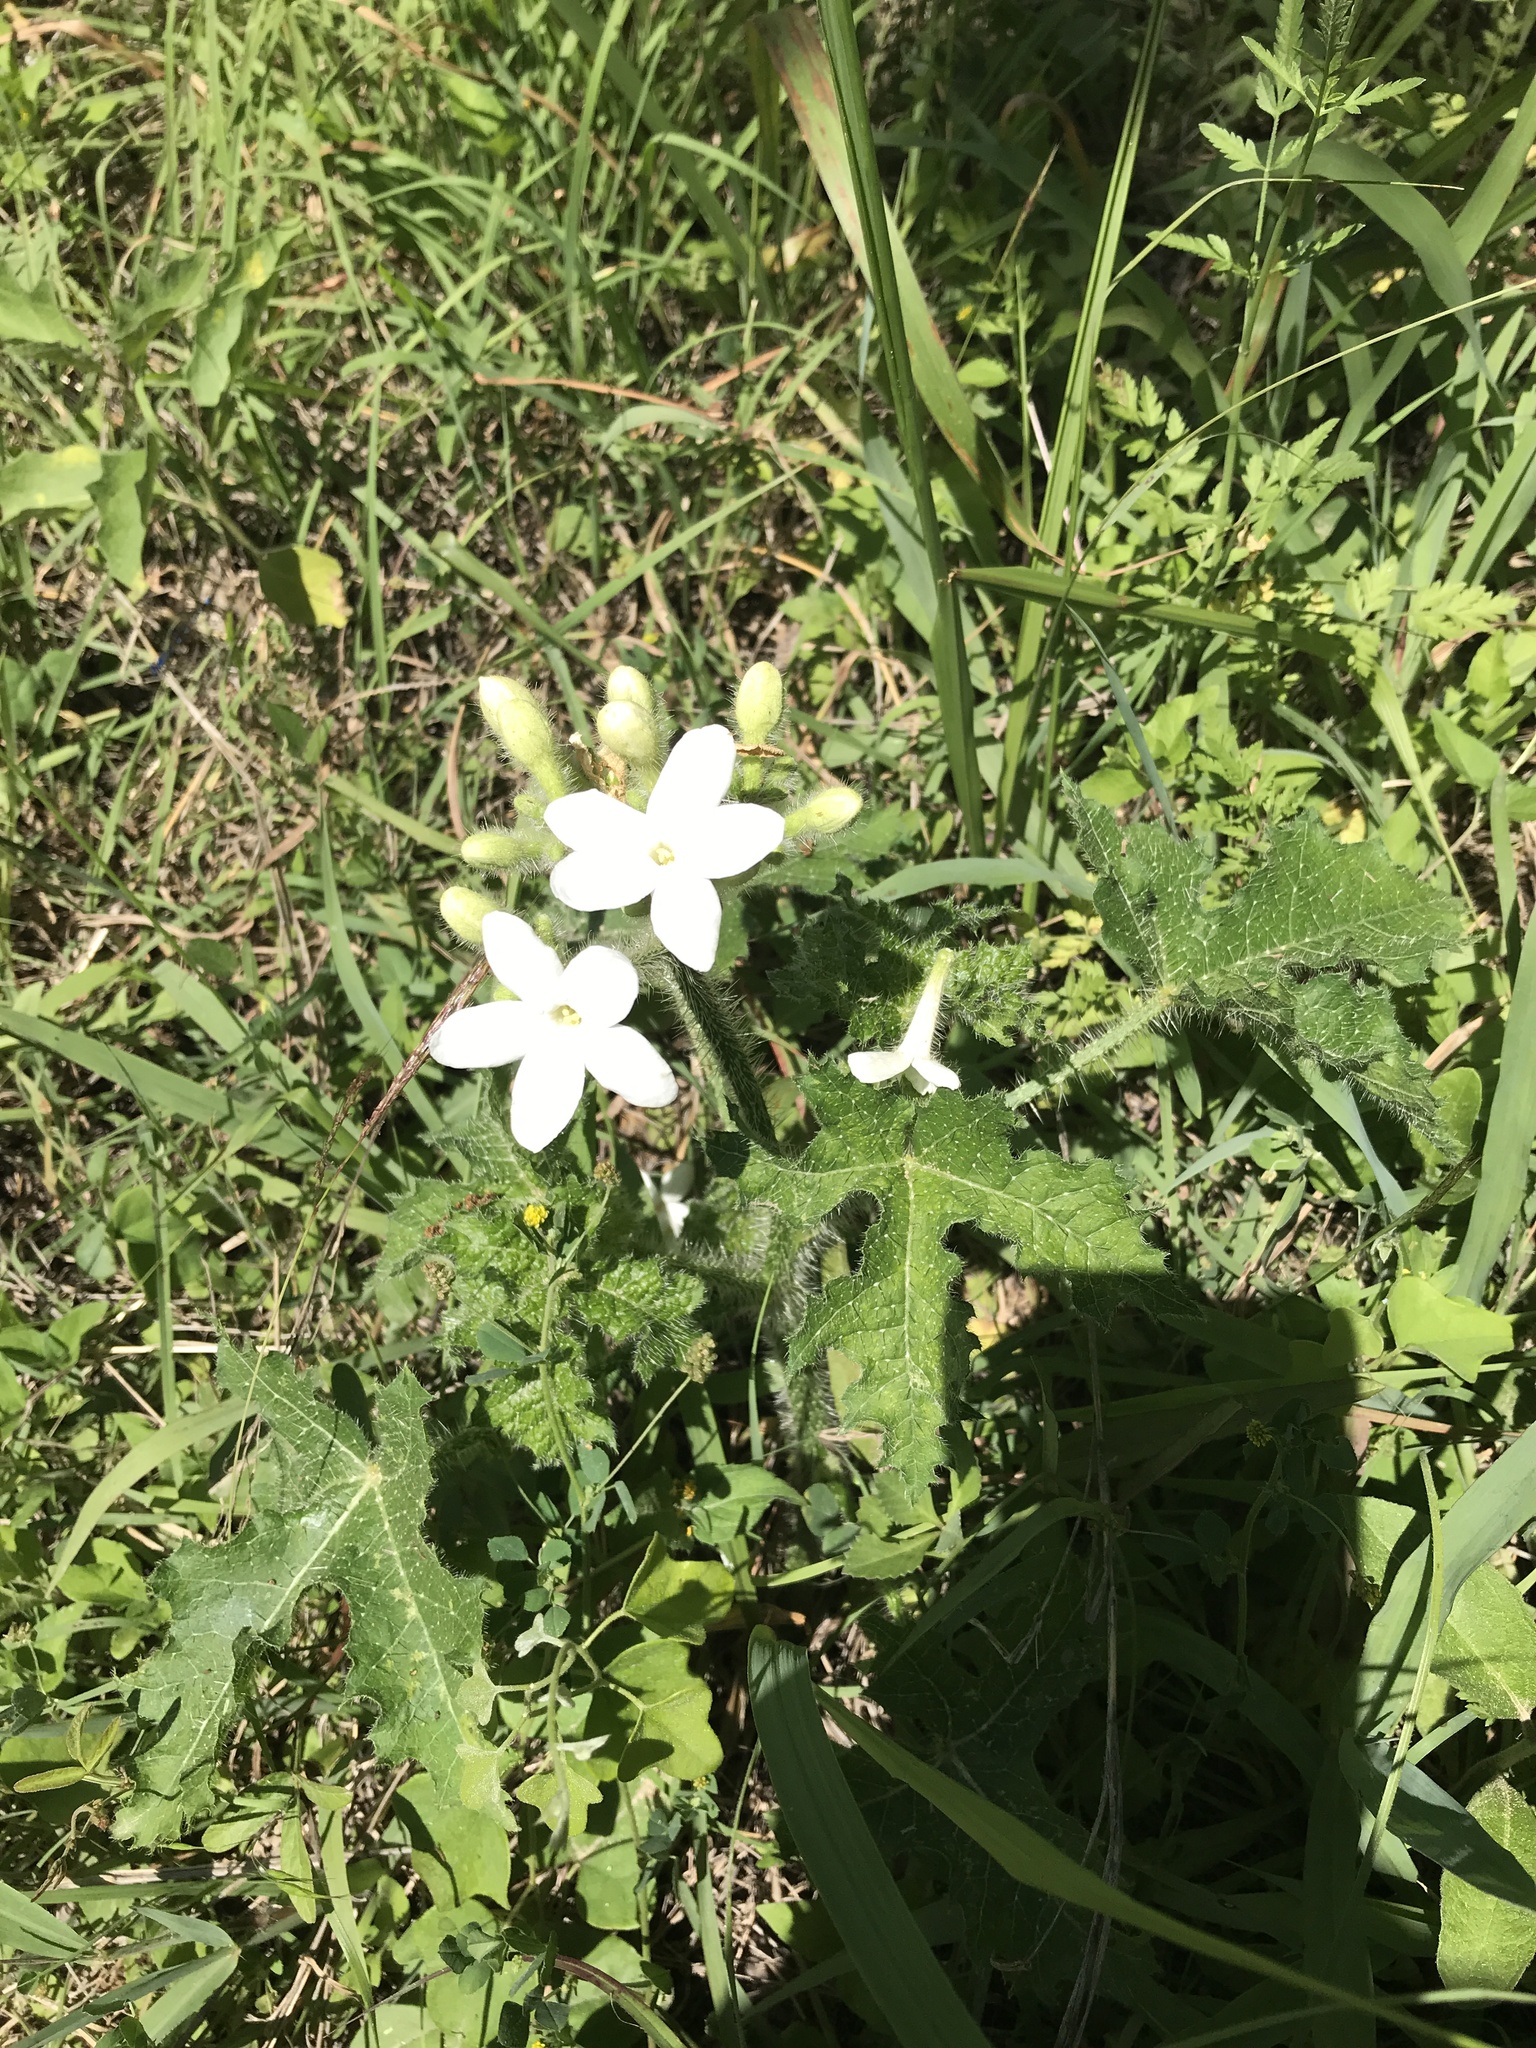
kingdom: Plantae
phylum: Tracheophyta
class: Magnoliopsida
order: Malpighiales
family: Euphorbiaceae
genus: Cnidoscolus
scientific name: Cnidoscolus texanus
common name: Texas bull-nettle
